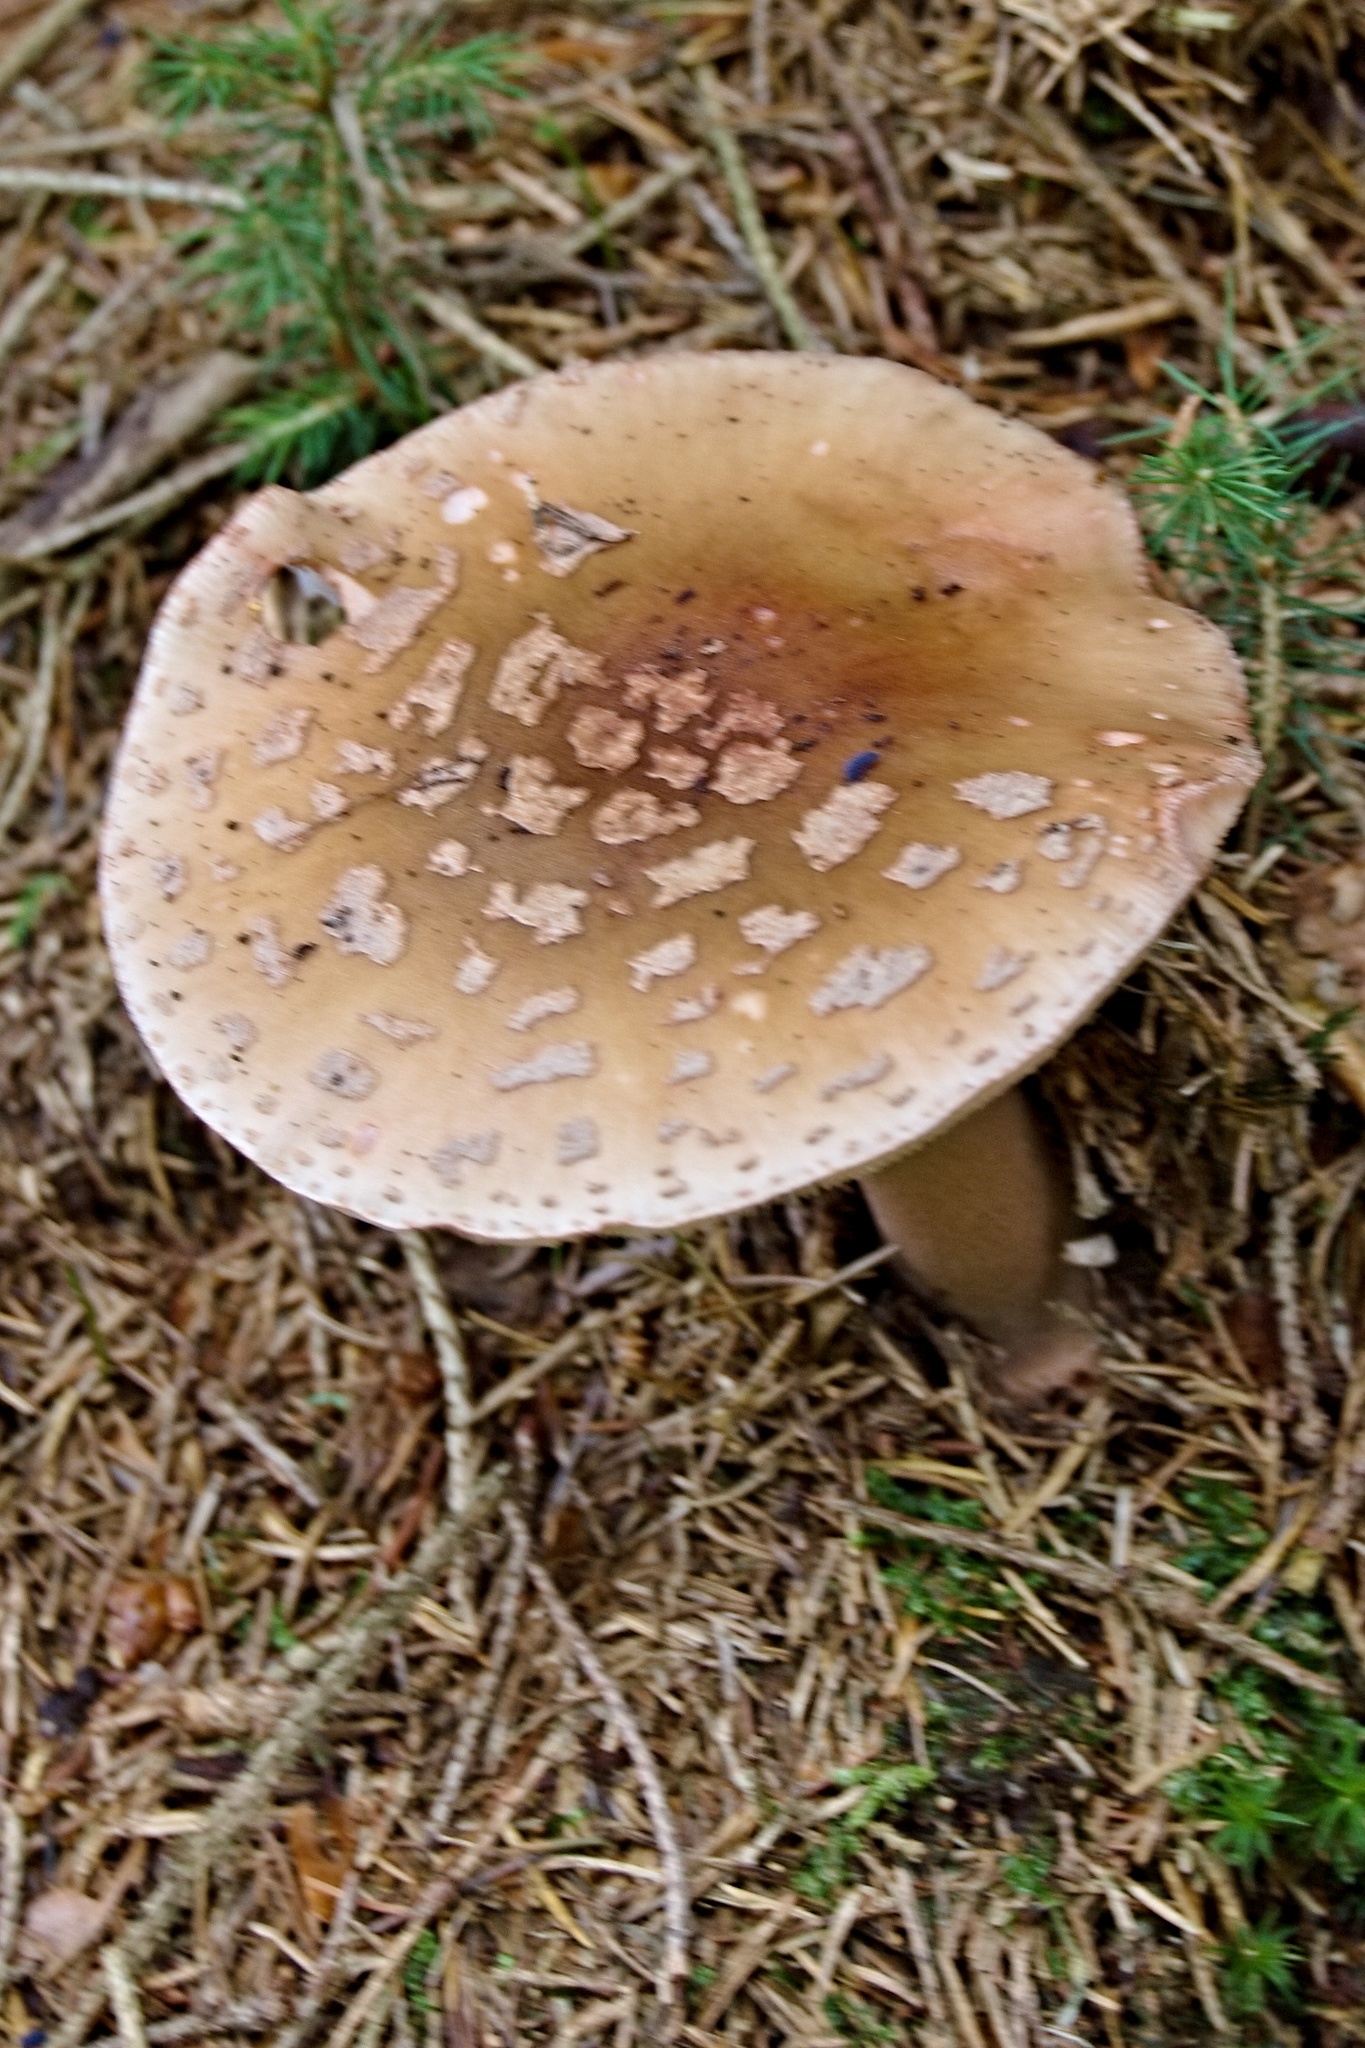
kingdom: Fungi
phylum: Basidiomycota
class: Agaricomycetes
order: Agaricales
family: Amanitaceae
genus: Amanita
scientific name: Amanita rubescens
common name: Blusher
